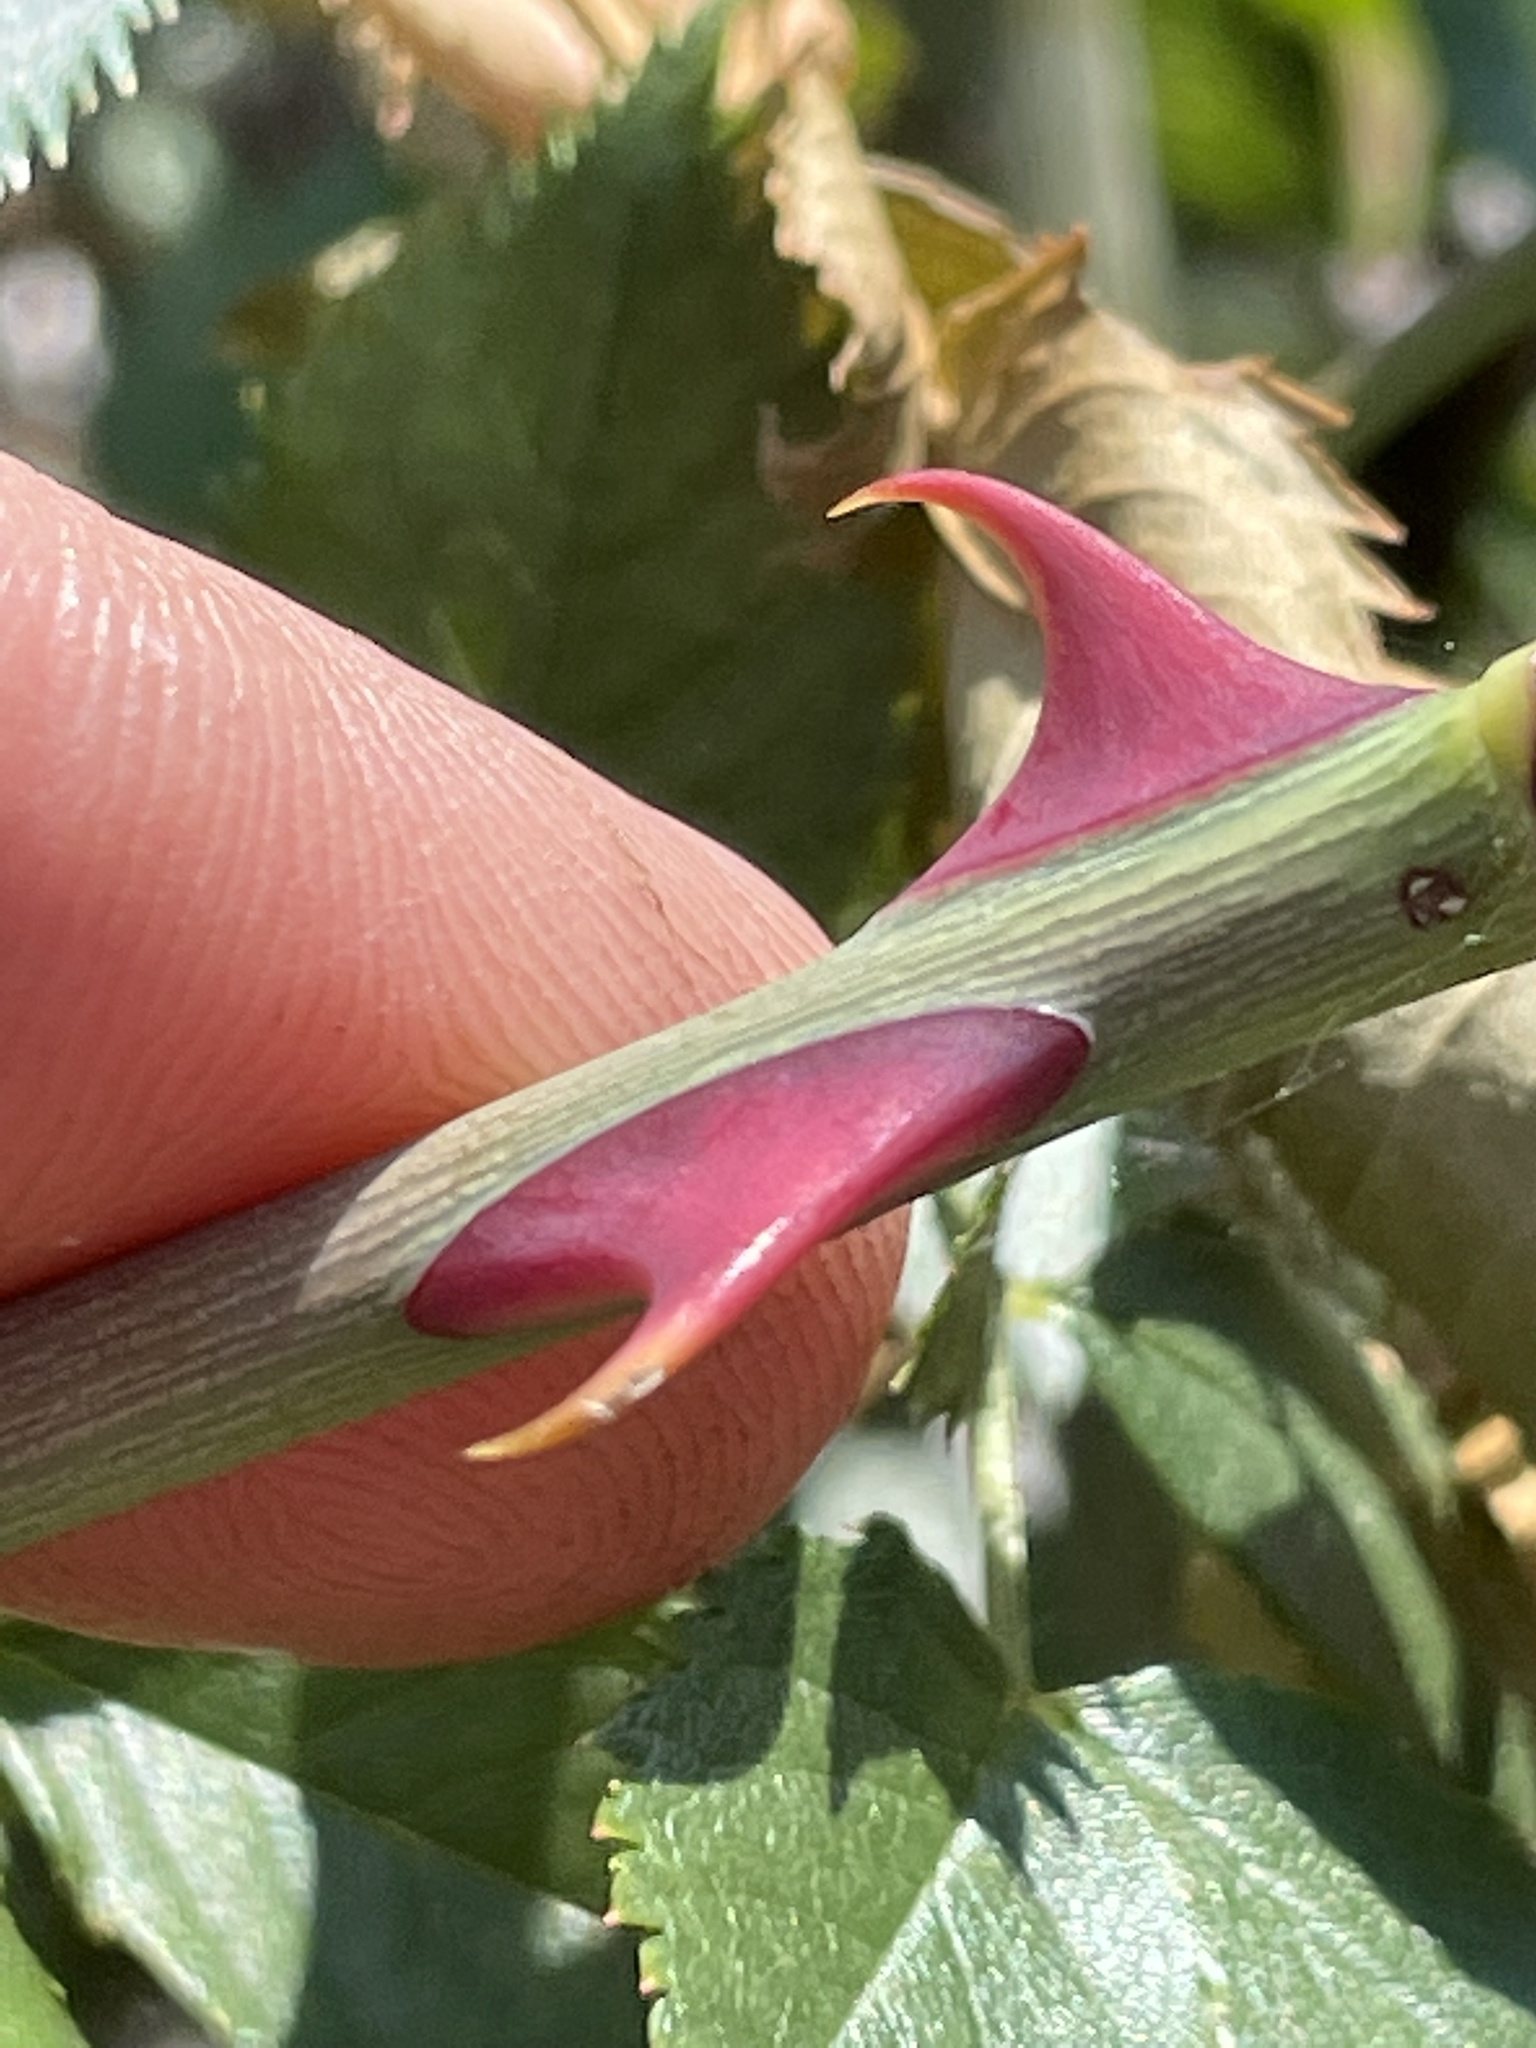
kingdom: Plantae
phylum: Tracheophyta
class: Magnoliopsida
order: Rosales
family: Rosaceae
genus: Rosa
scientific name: Rosa canina
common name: Dog rose
